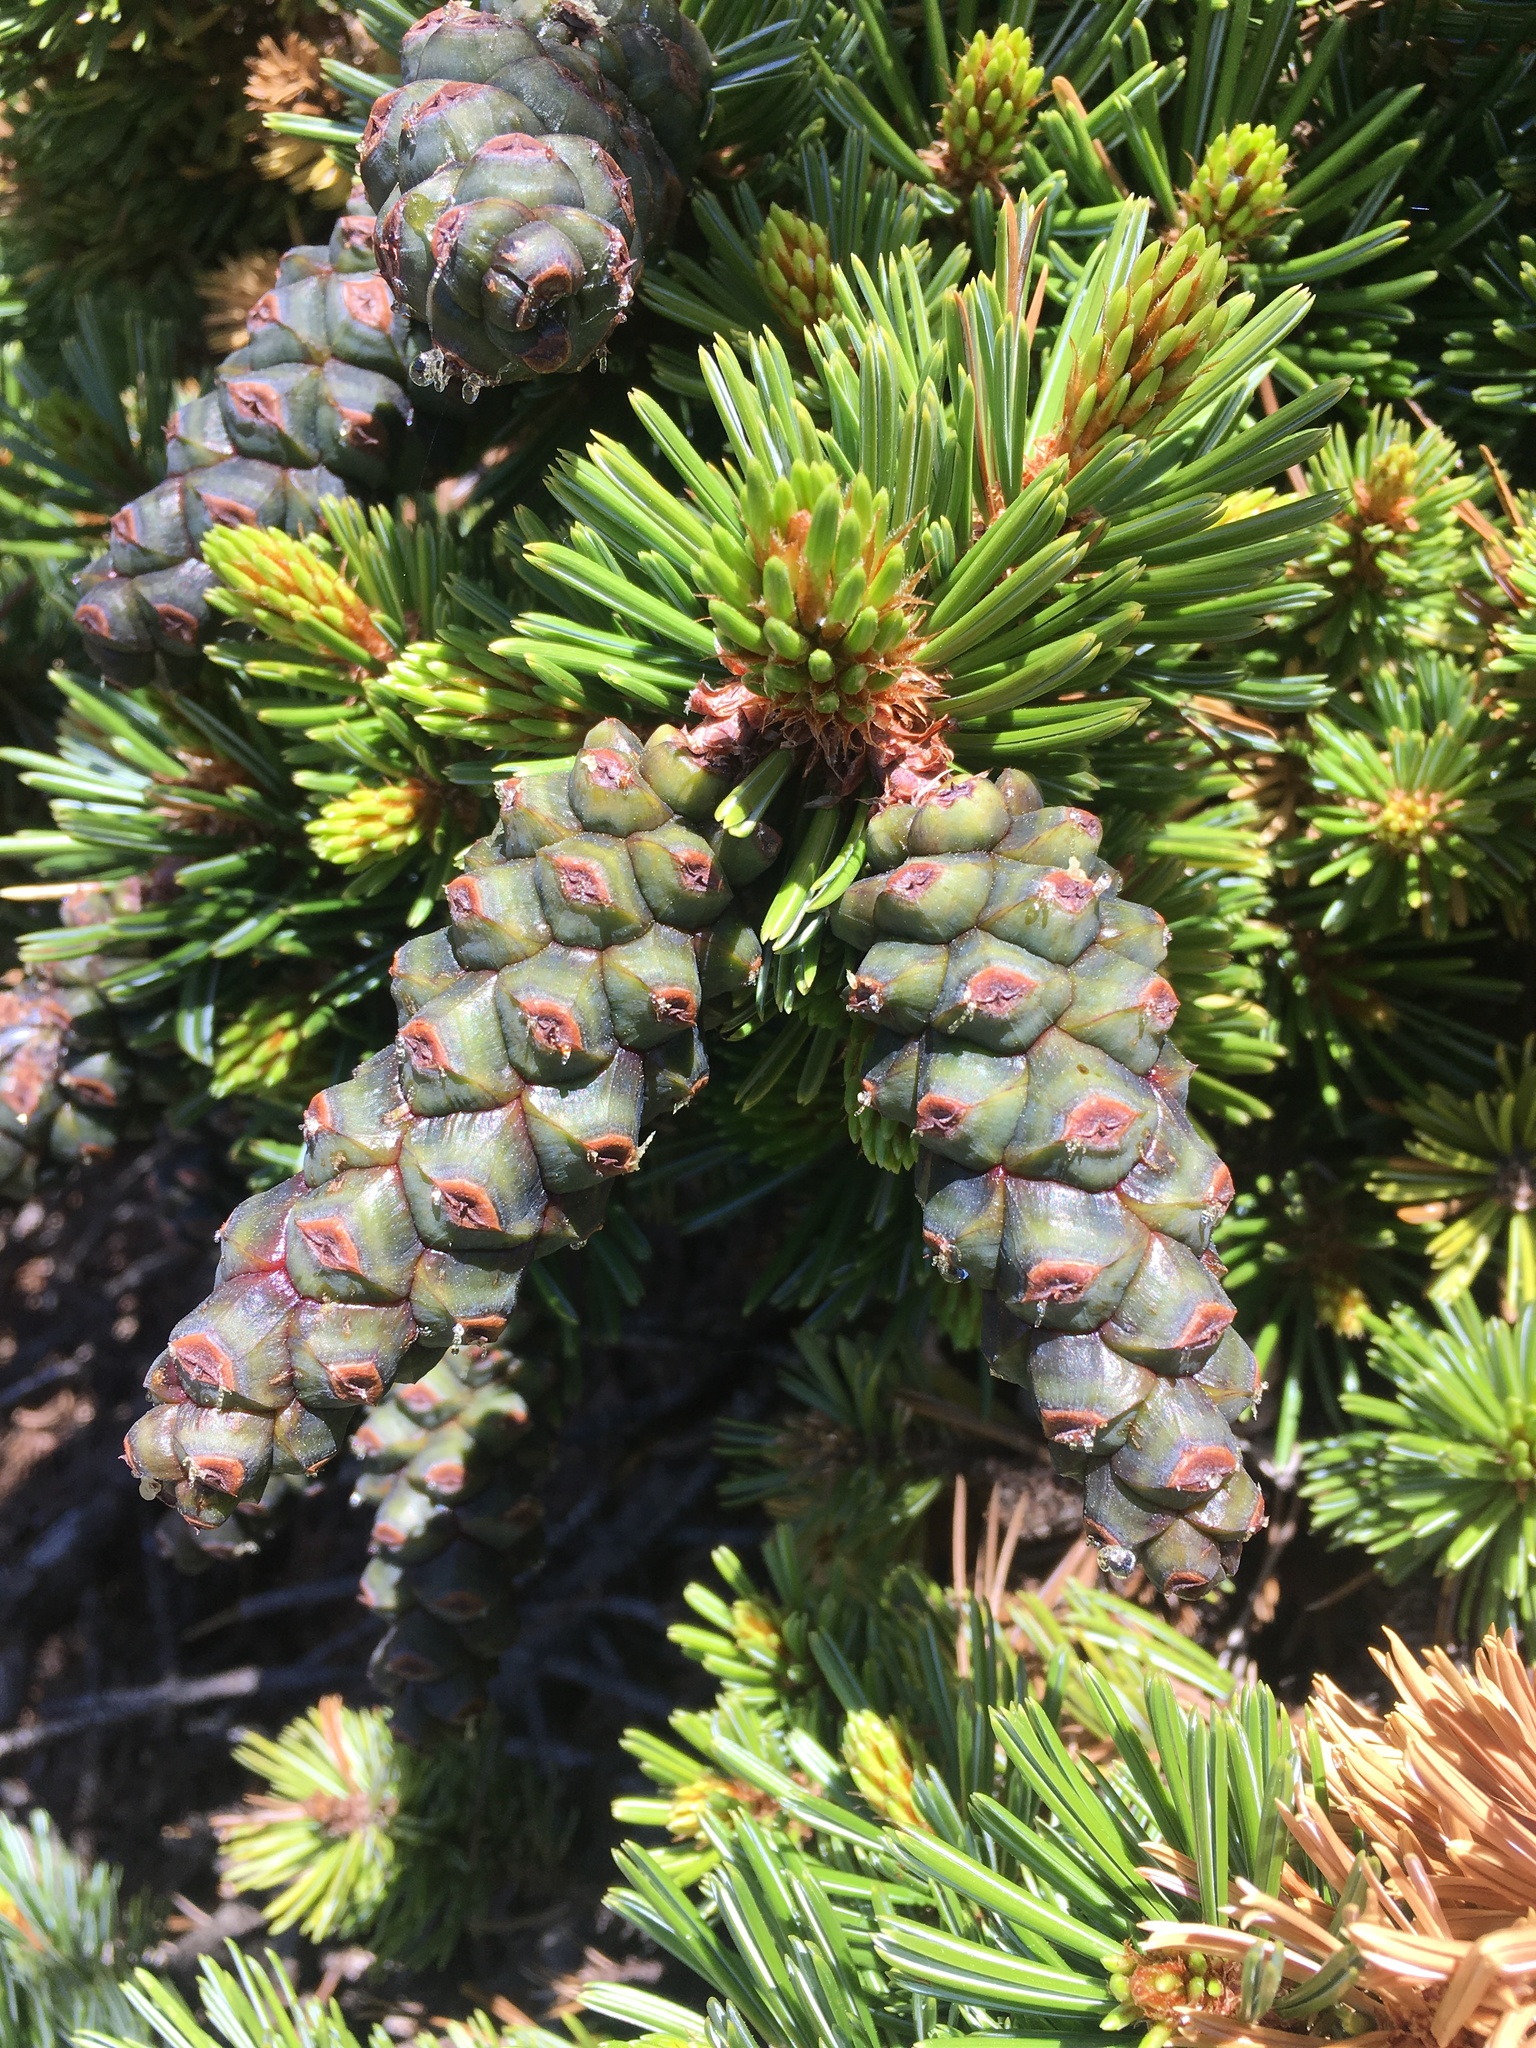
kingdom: Plantae
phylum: Tracheophyta
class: Pinopsida
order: Pinales
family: Pinaceae
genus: Pinus
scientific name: Pinus balfouriana
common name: Foxtail pine
